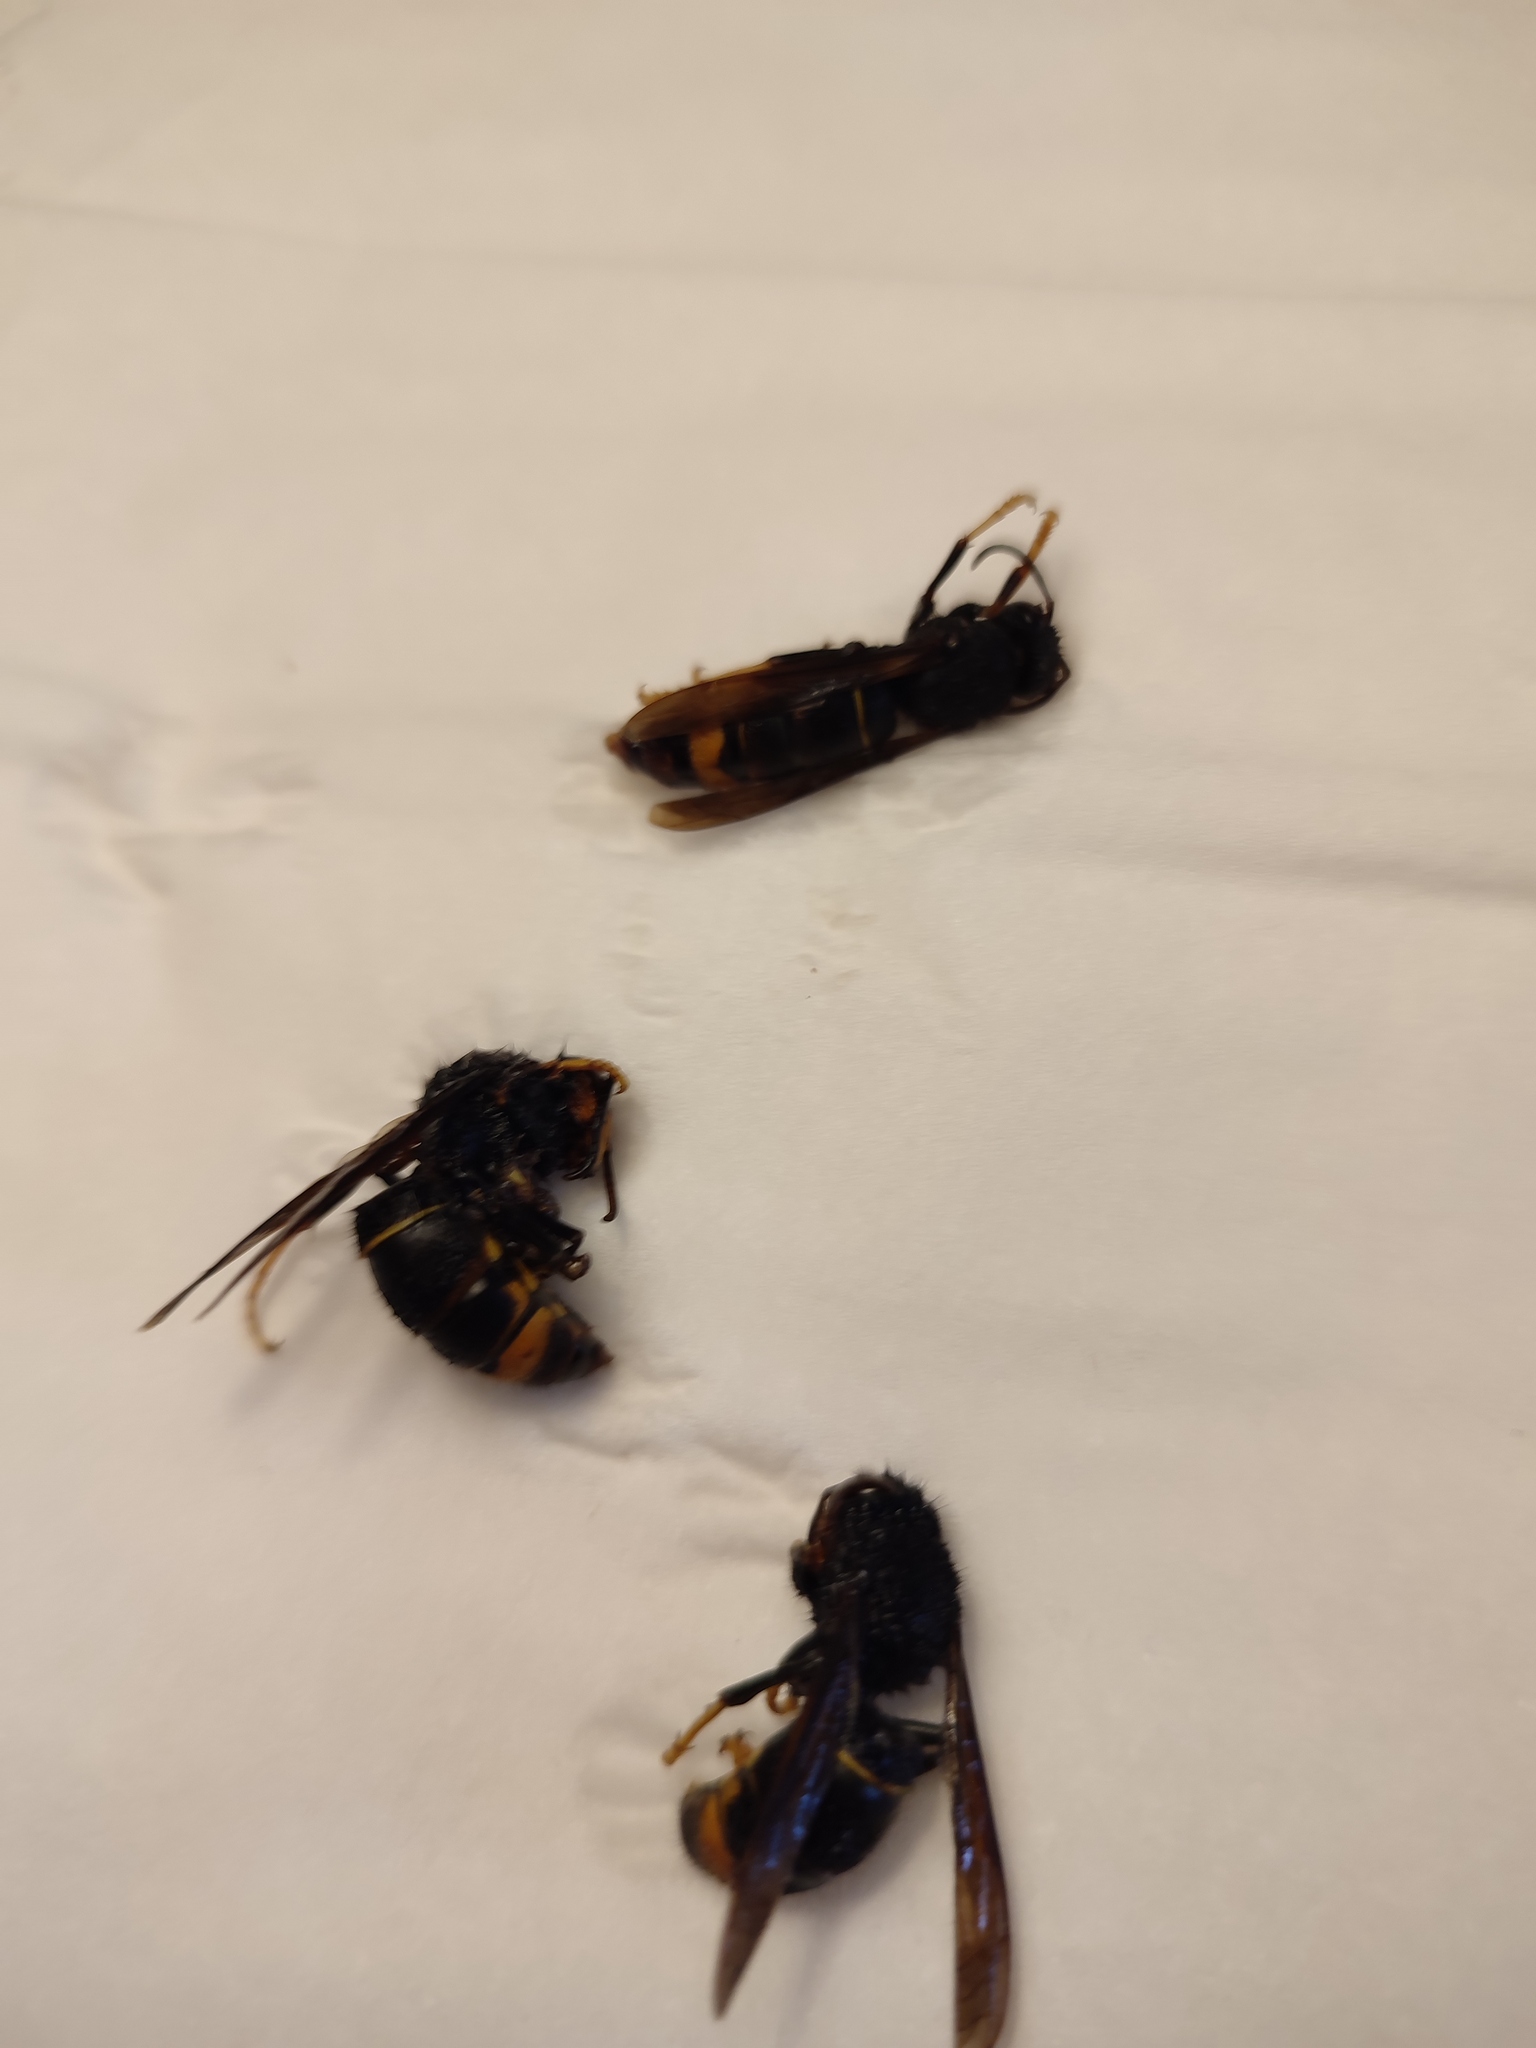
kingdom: Animalia
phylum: Arthropoda
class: Insecta
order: Hymenoptera
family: Vespidae
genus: Vespa
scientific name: Vespa velutina
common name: Asian hornet
